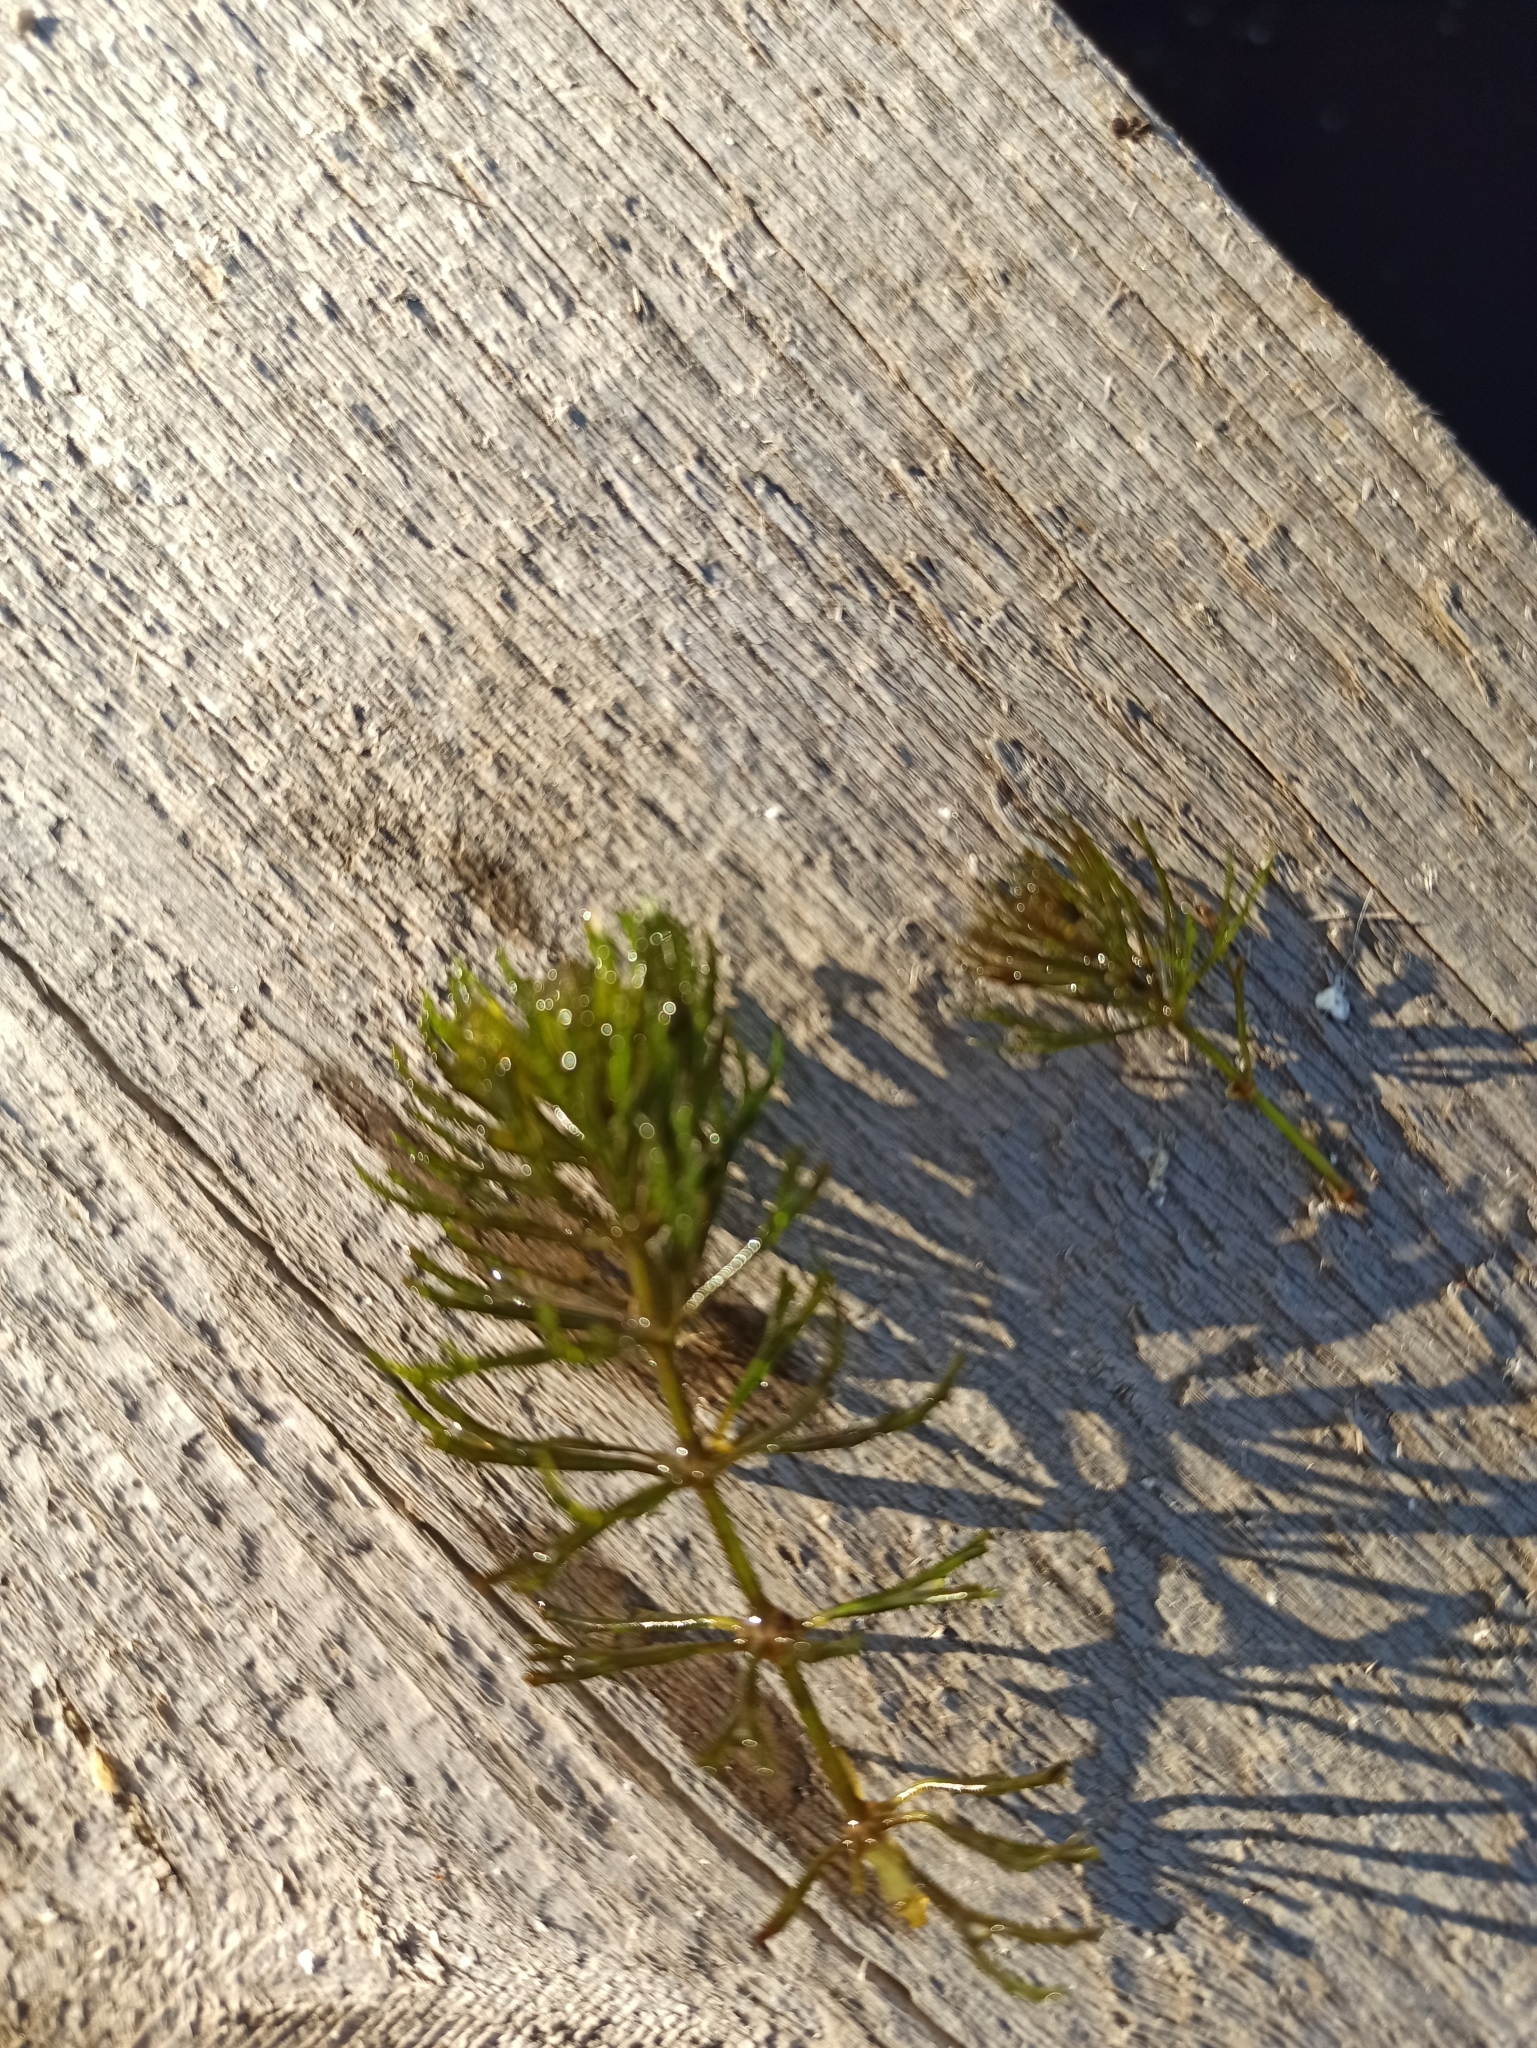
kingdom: Plantae
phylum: Tracheophyta
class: Magnoliopsida
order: Ceratophyllales
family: Ceratophyllaceae
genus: Ceratophyllum
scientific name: Ceratophyllum demersum
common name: Rigid hornwort
